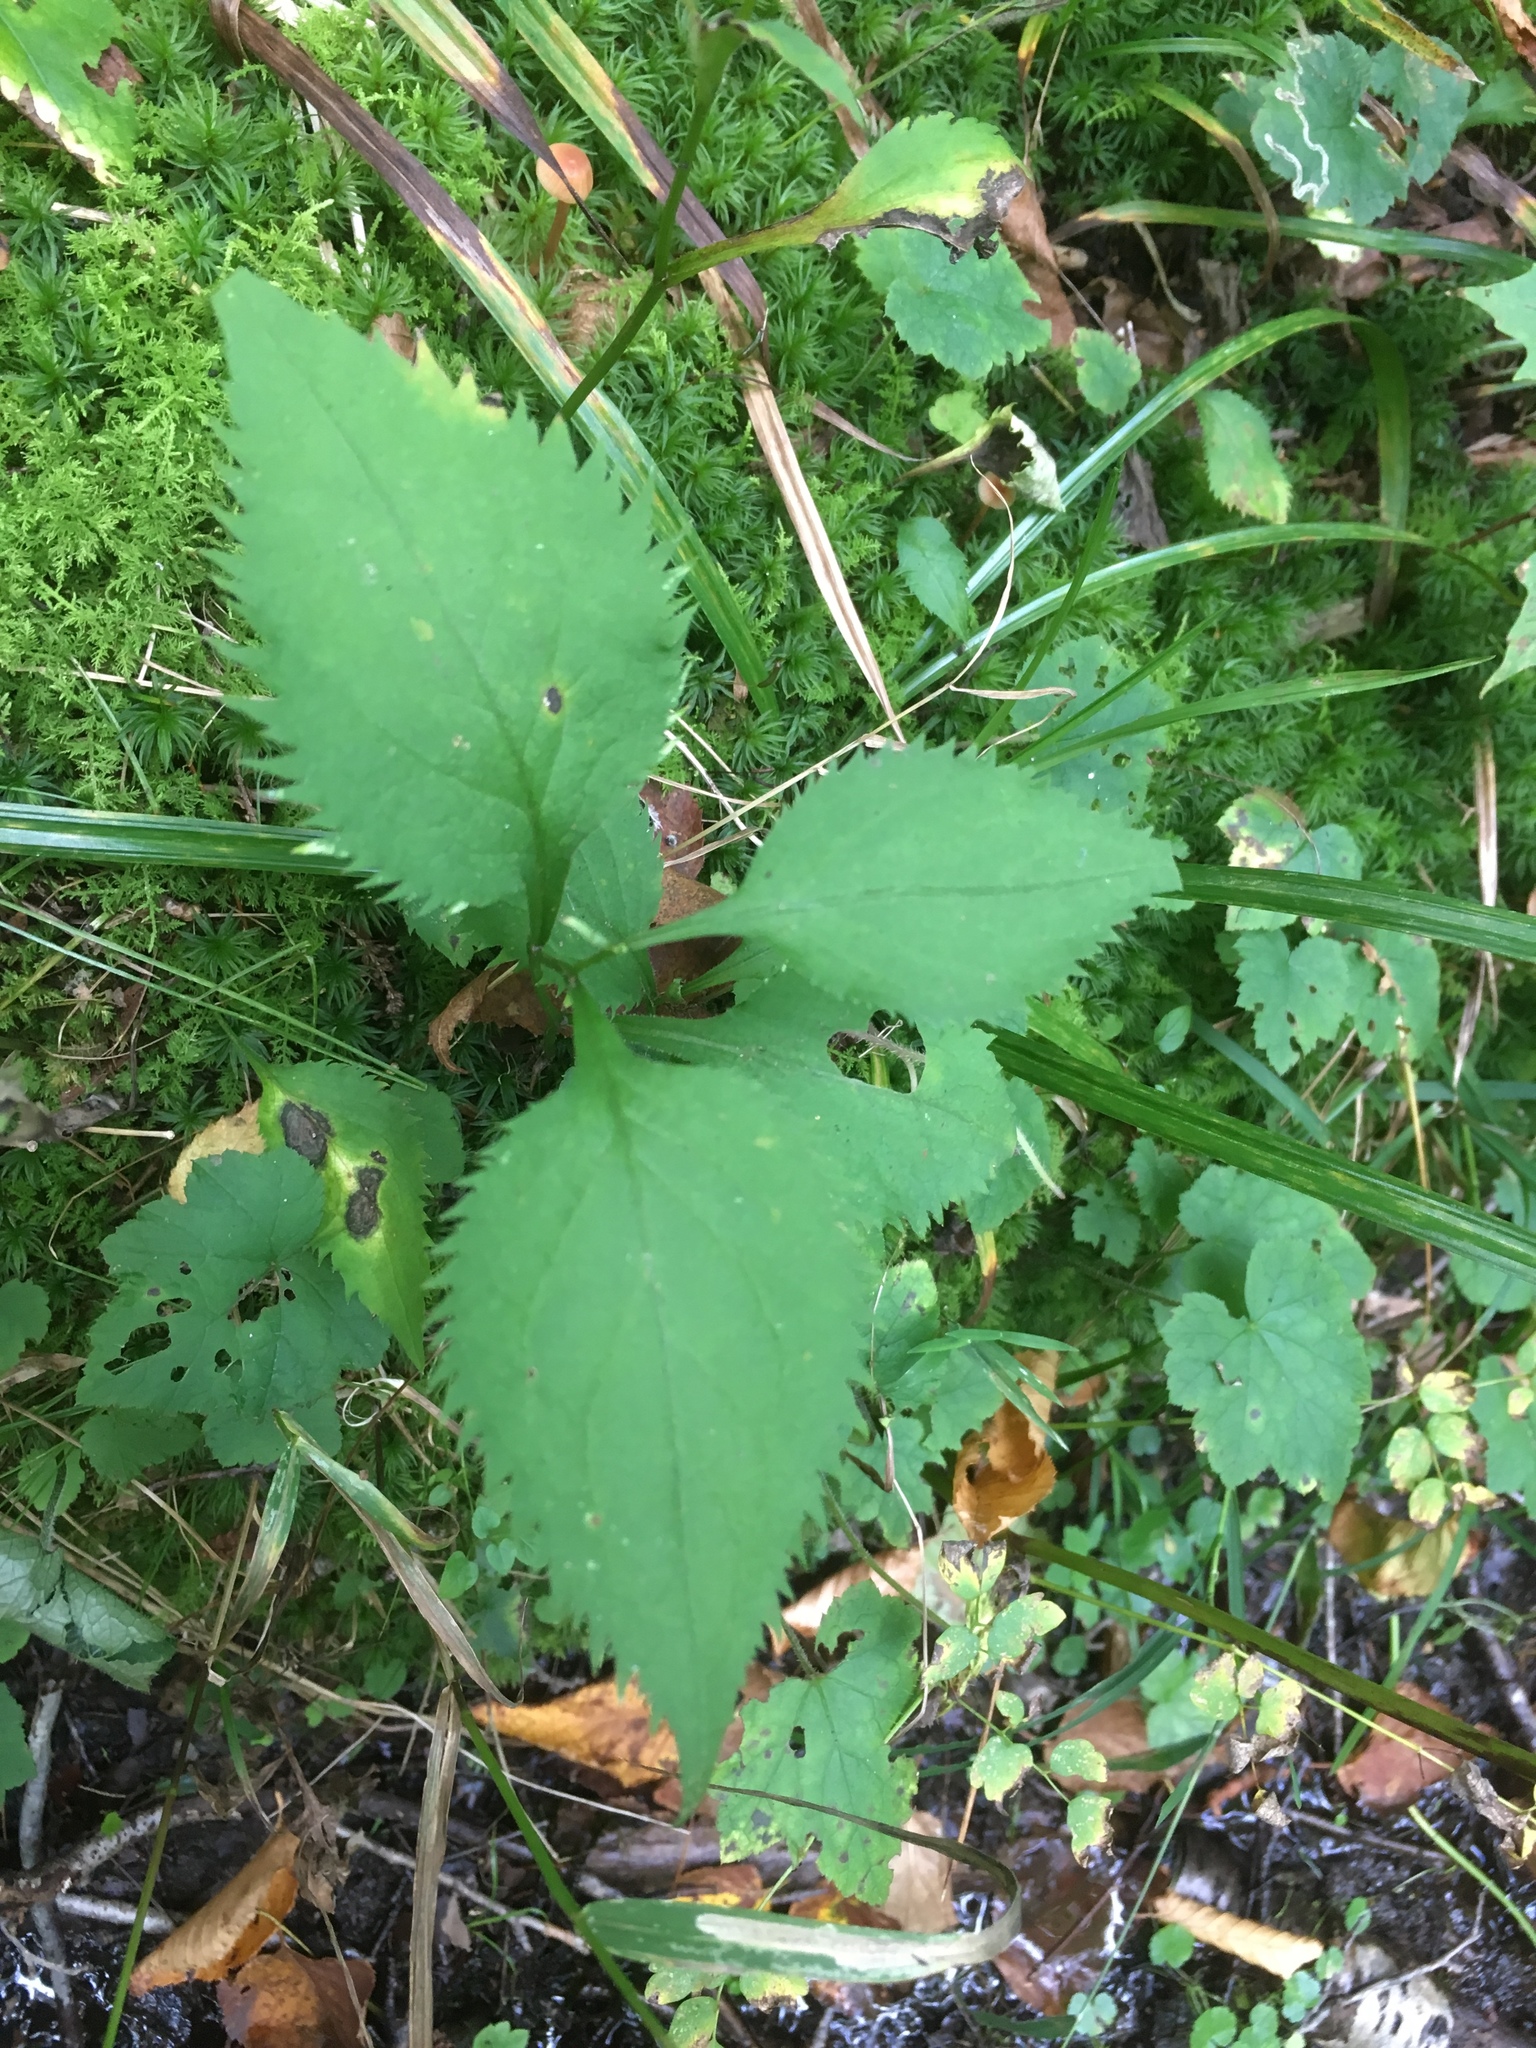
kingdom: Plantae
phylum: Tracheophyta
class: Magnoliopsida
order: Asterales
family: Asteraceae
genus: Solidago
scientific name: Solidago flexicaulis
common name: Zig-zag goldenrod
